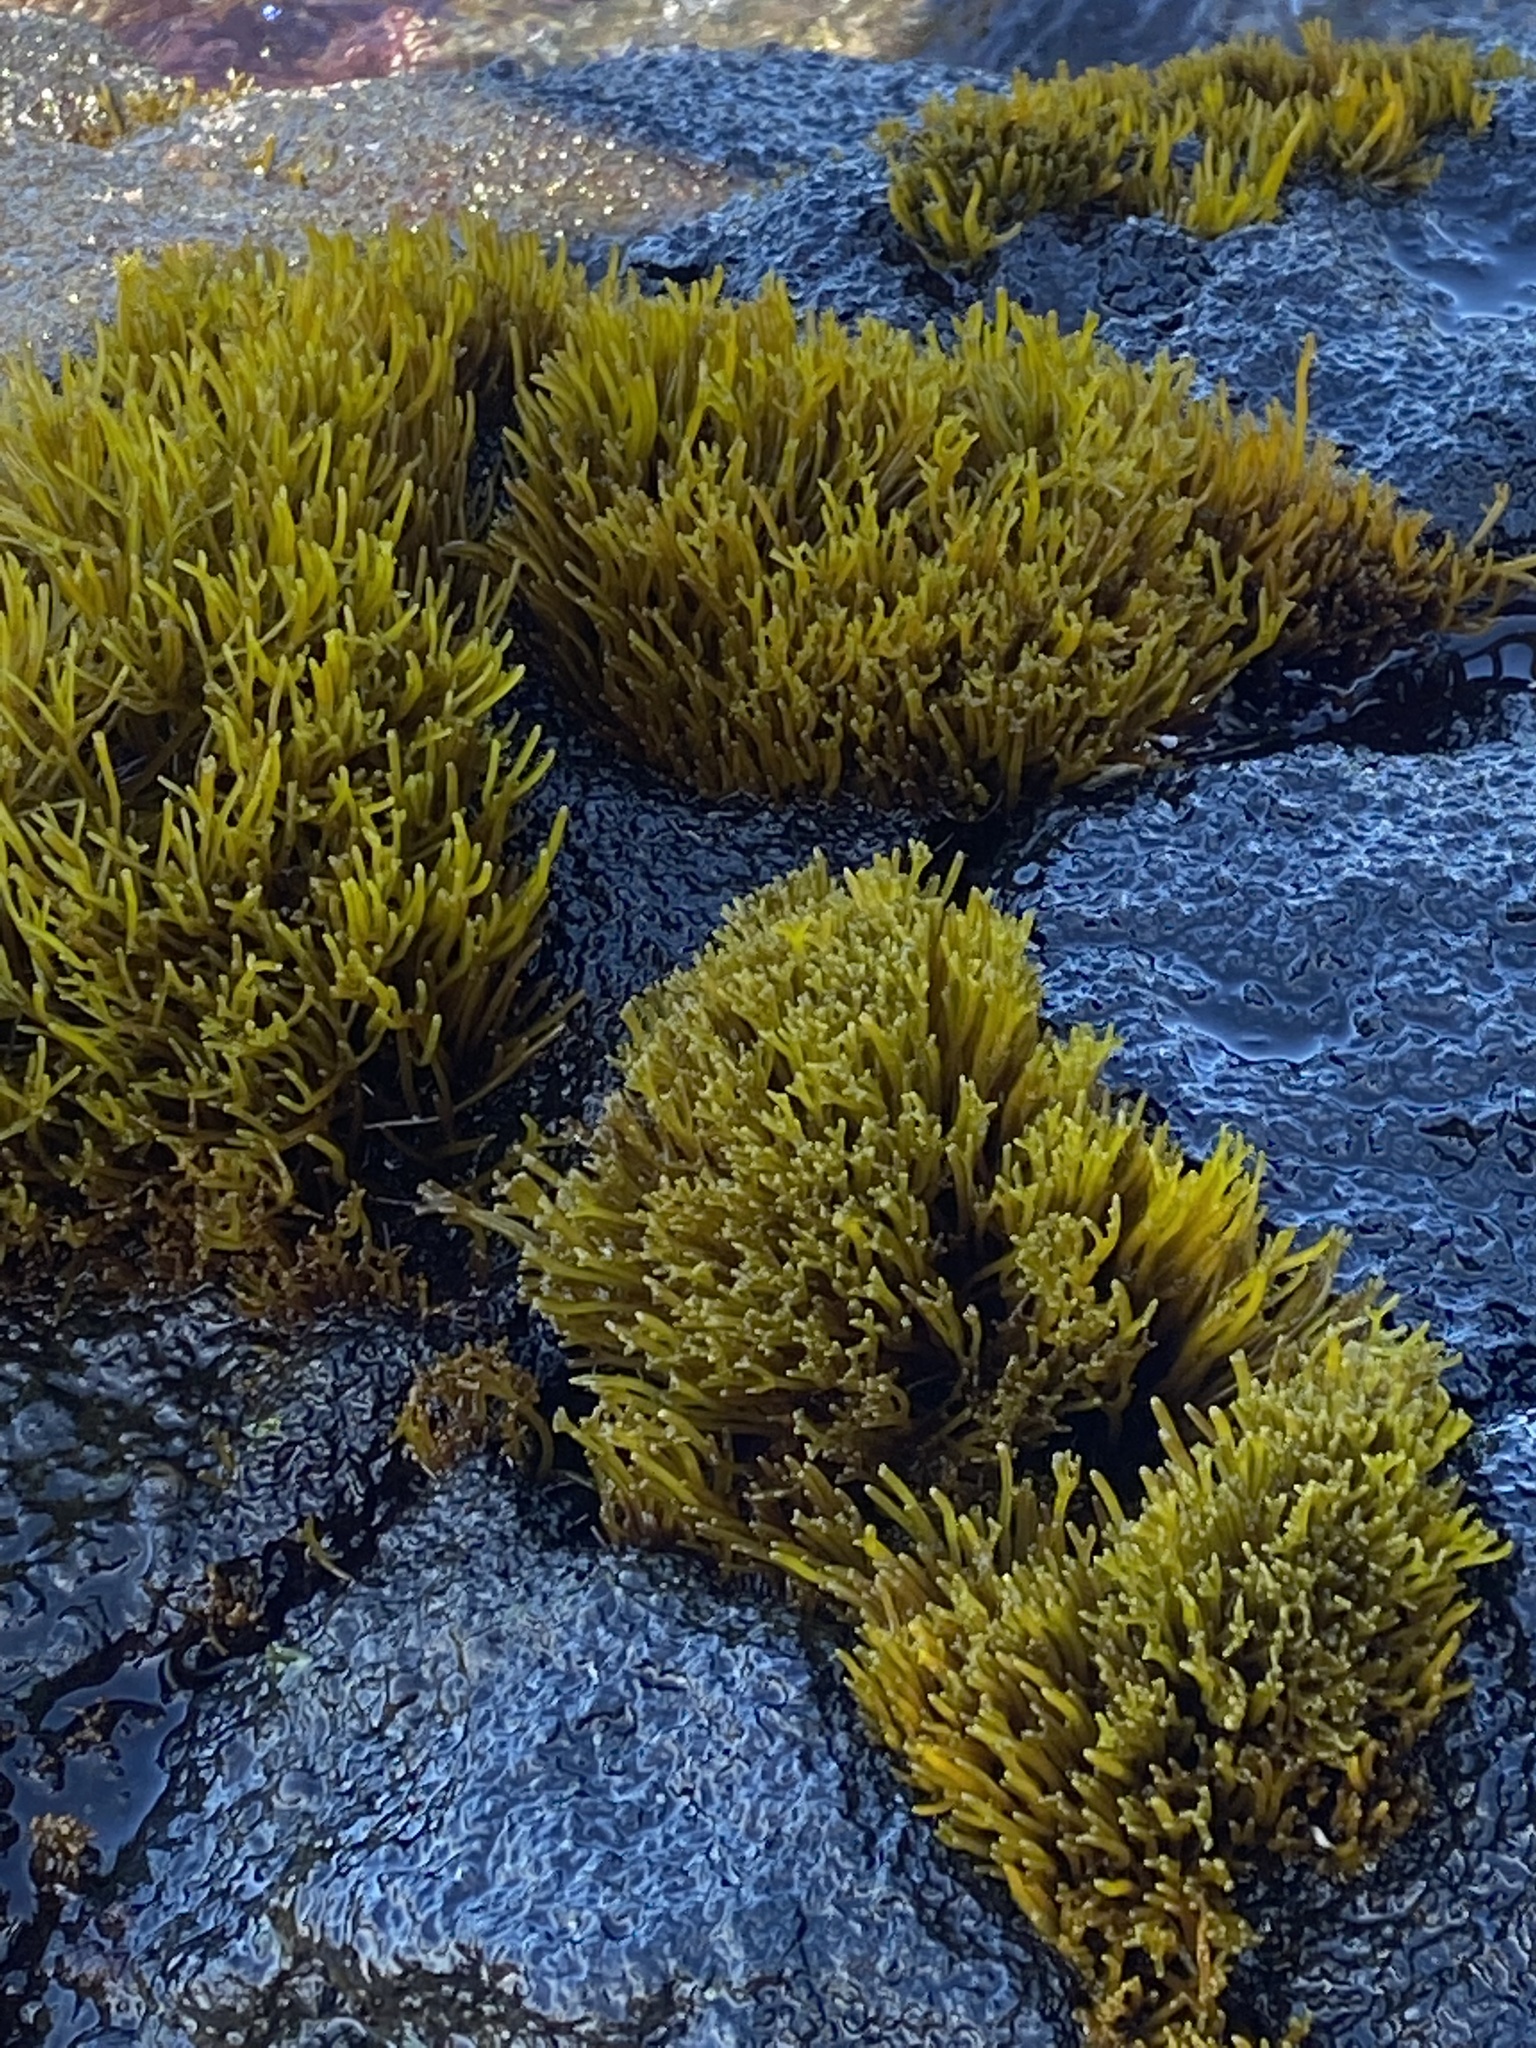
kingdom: Plantae
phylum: Rhodophyta
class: Florideophyceae
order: Gigartinales
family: Phyllophoraceae
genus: Gymnogongrus
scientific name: Gymnogongrus durvillei
